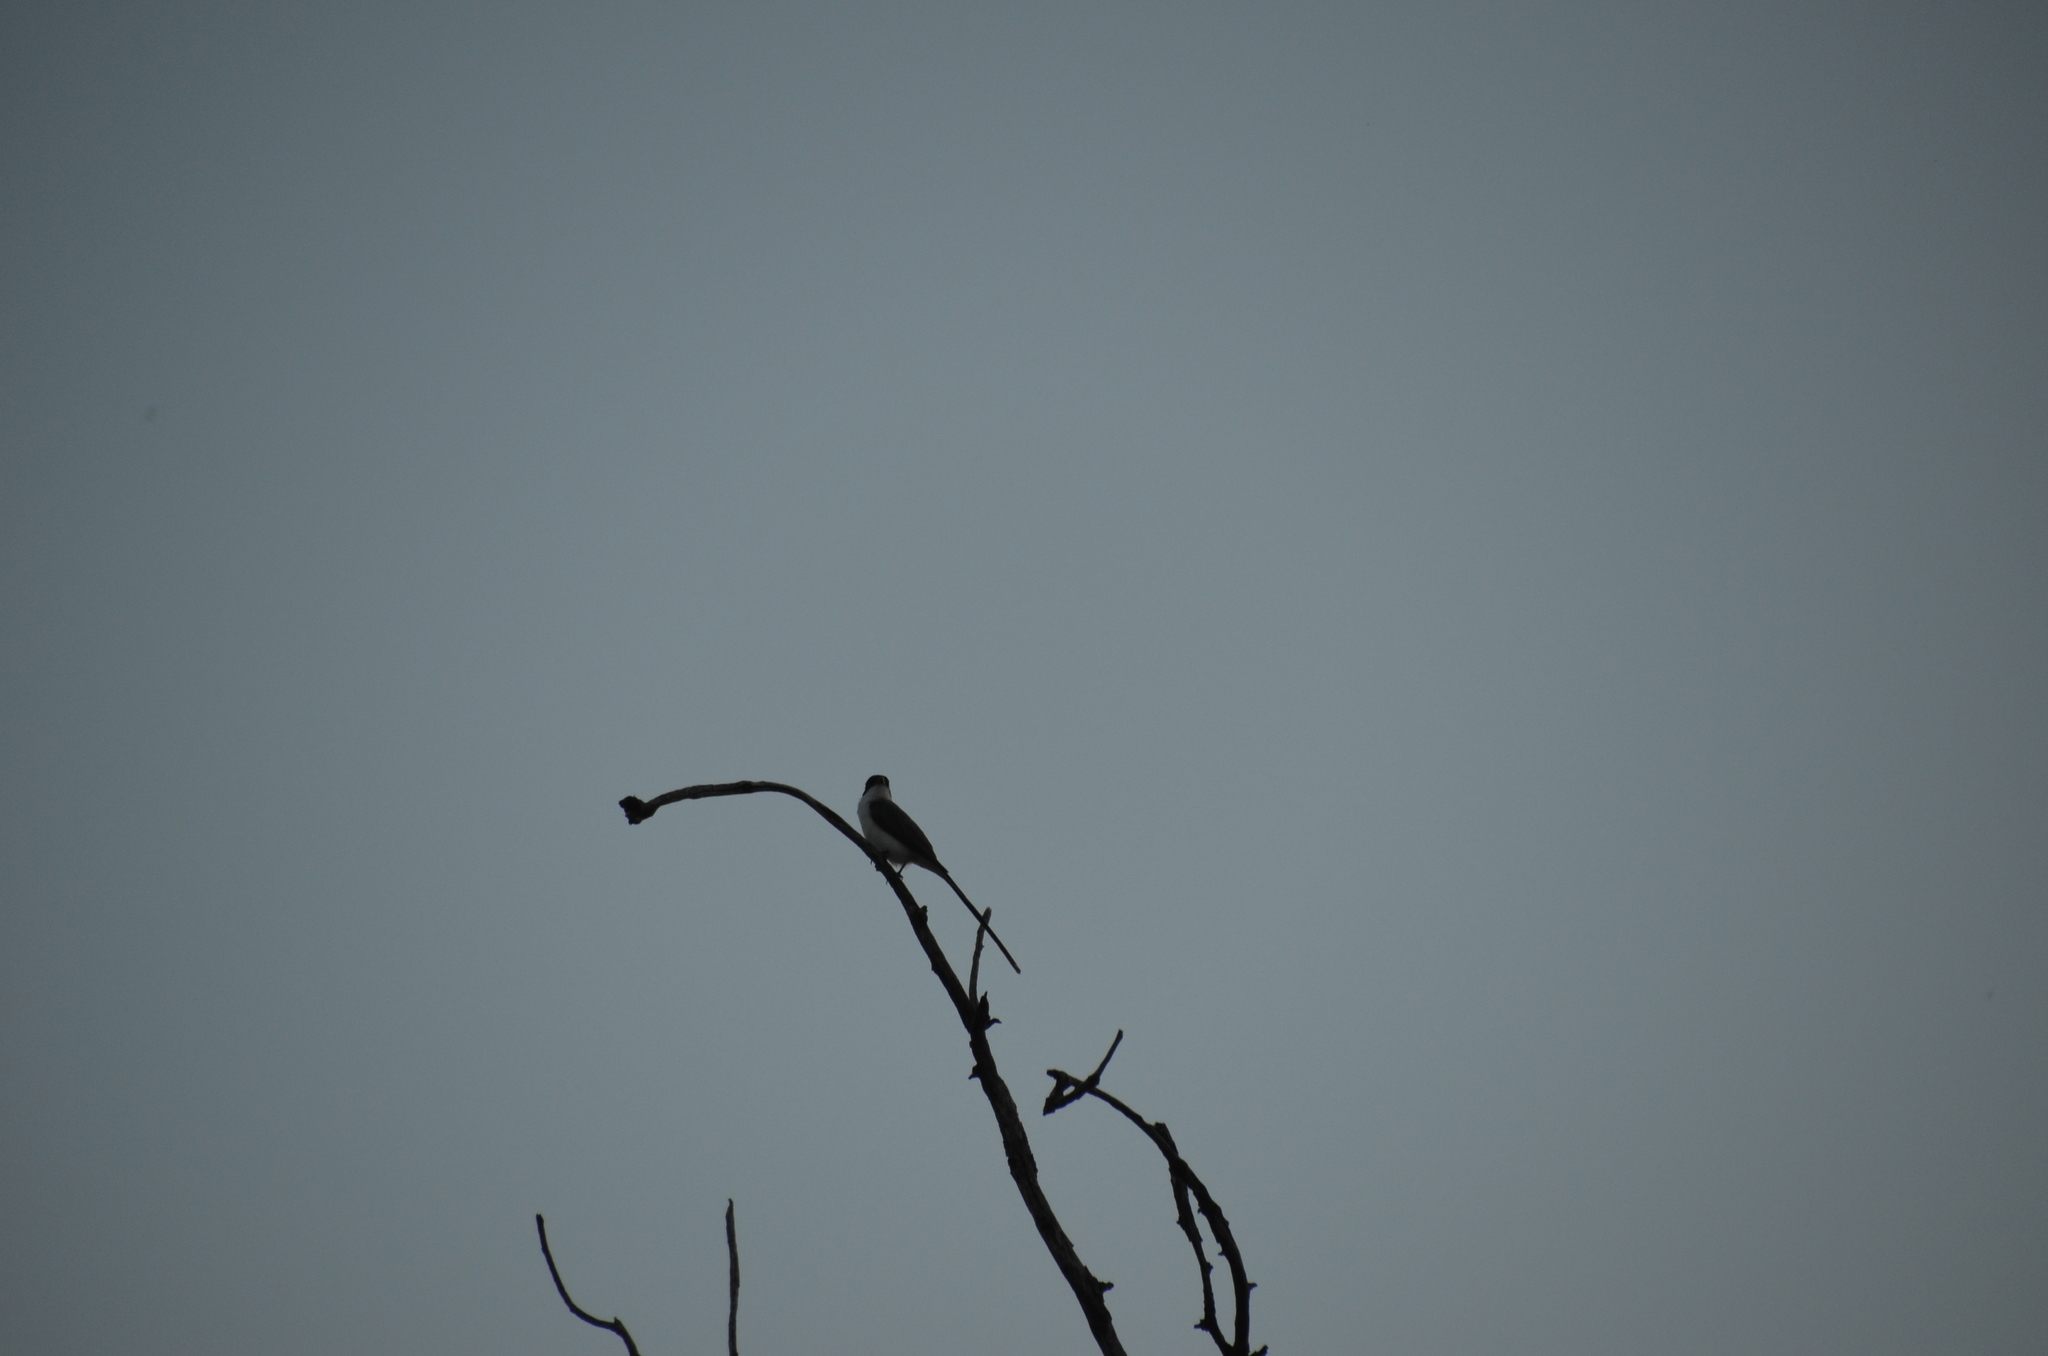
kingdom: Animalia
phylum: Chordata
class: Aves
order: Passeriformes
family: Tyrannidae
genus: Tyrannus
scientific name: Tyrannus savana
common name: Fork-tailed flycatcher
